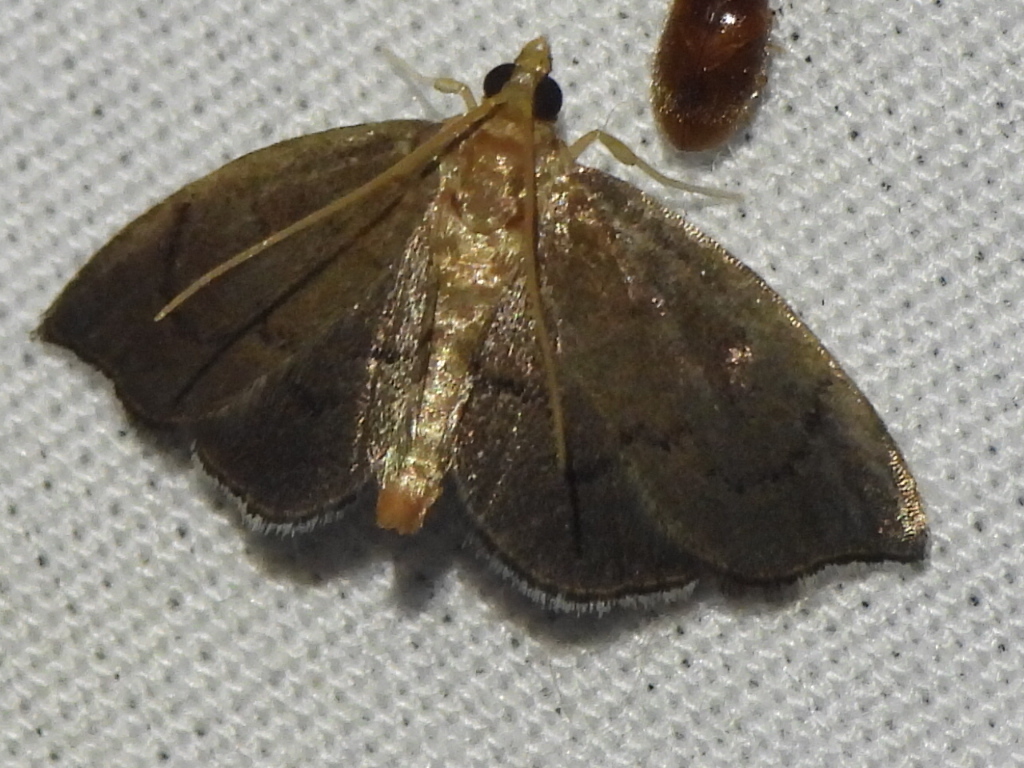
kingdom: Animalia
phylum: Arthropoda
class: Insecta
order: Lepidoptera
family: Crambidae
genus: Perispasta
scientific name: Perispasta caeculalis
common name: Titian peale's moth
